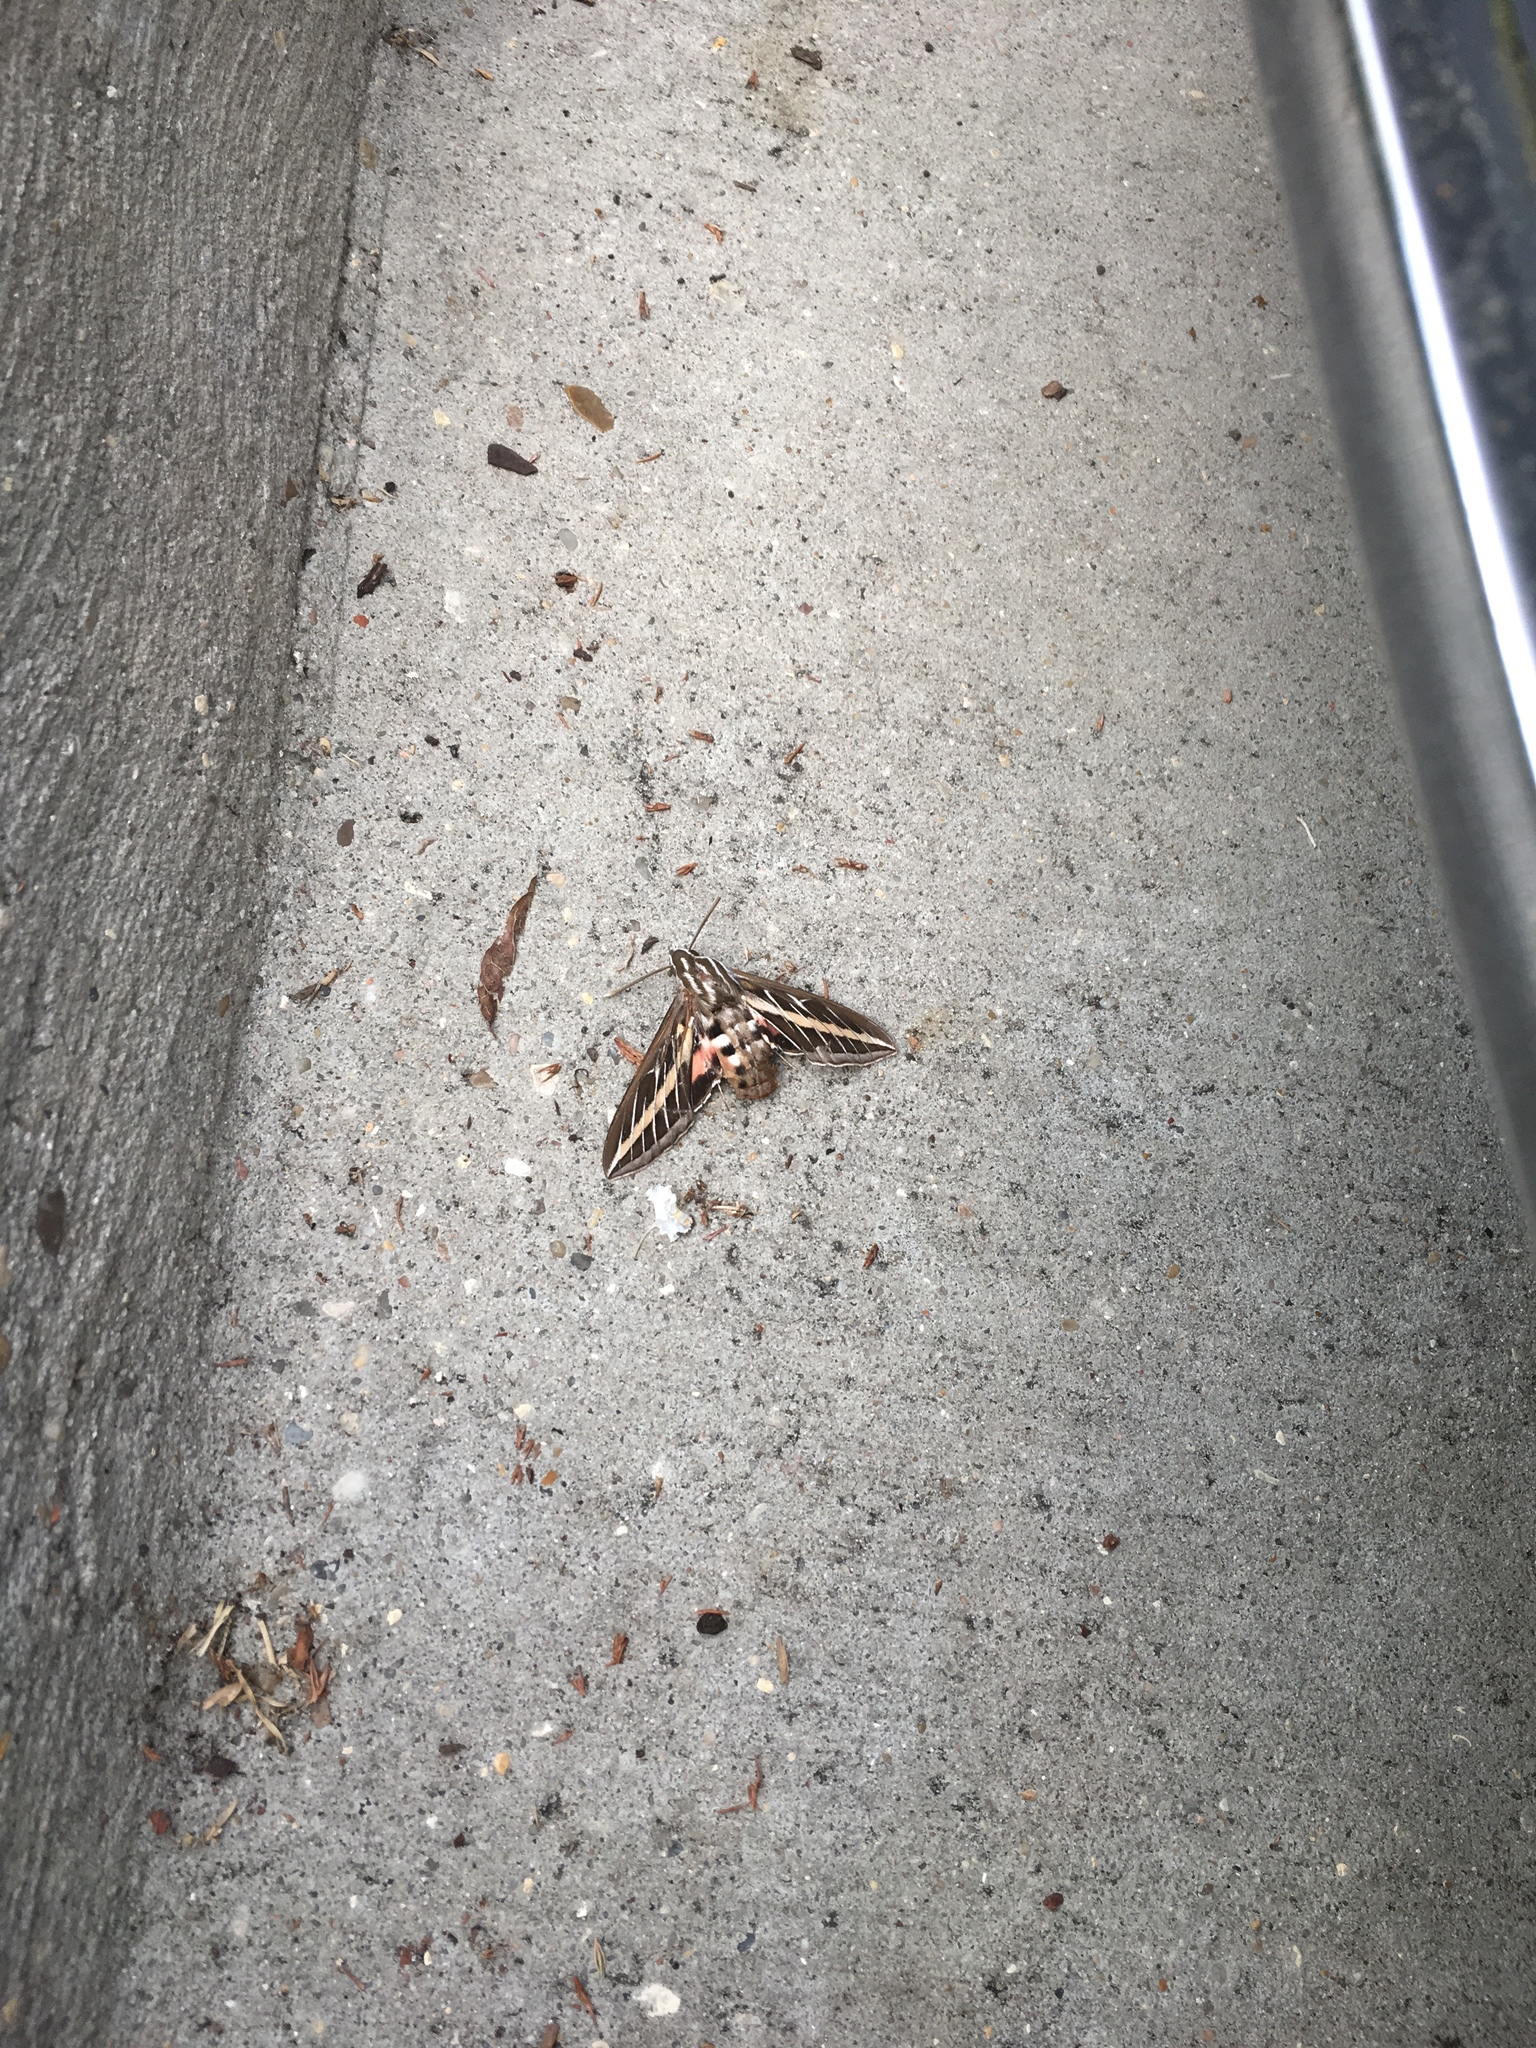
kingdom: Animalia
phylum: Arthropoda
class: Insecta
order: Lepidoptera
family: Sphingidae
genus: Hyles
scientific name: Hyles lineata
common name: White-lined sphinx
